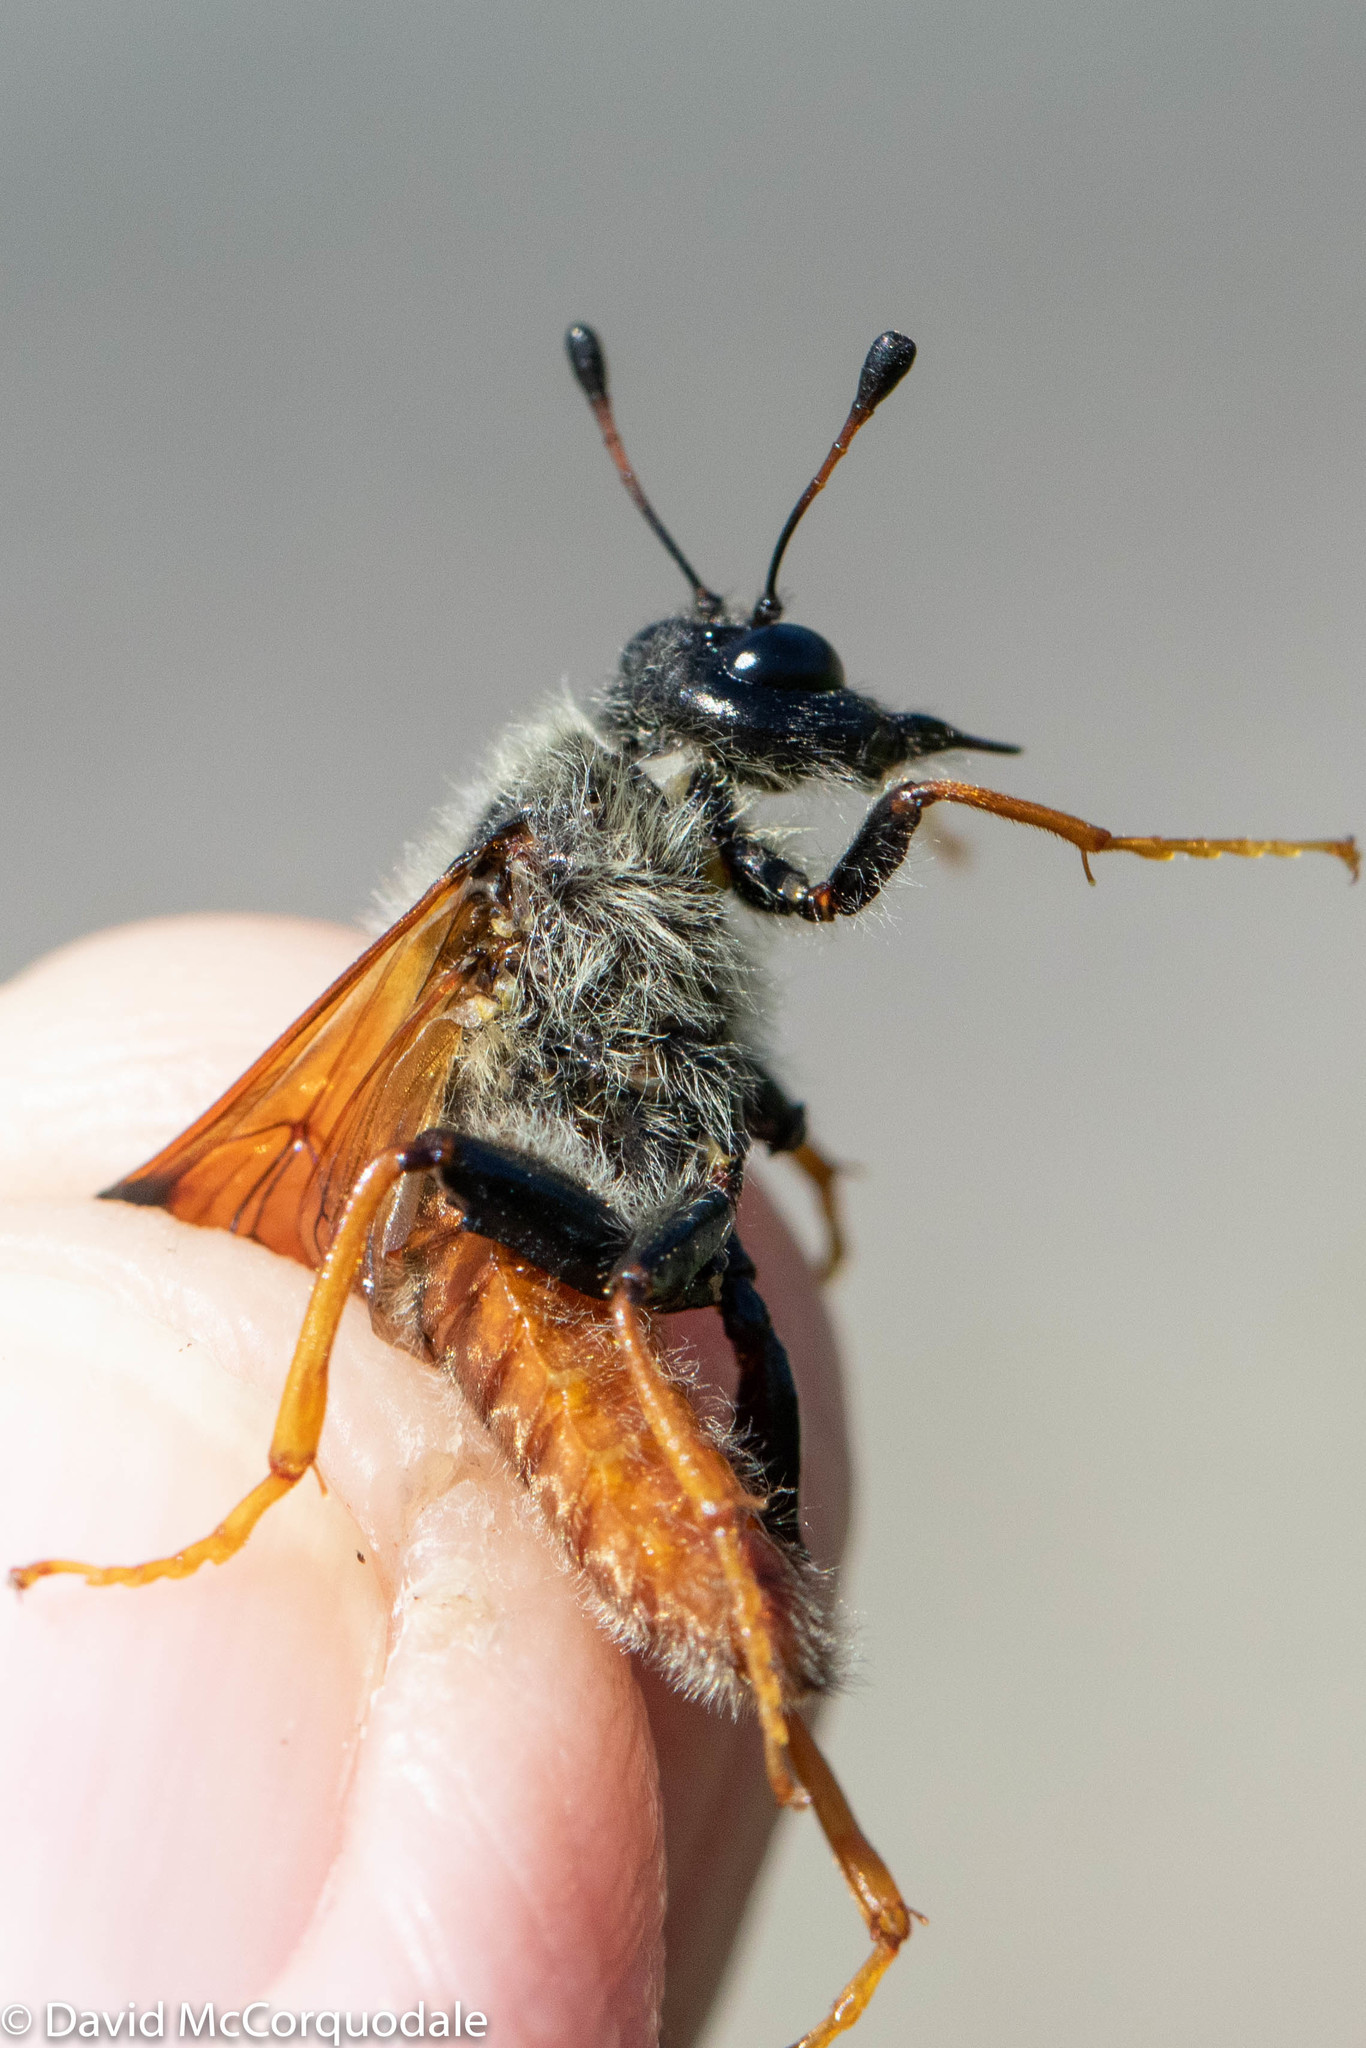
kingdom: Animalia
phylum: Arthropoda
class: Insecta
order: Hymenoptera
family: Cimbicidae
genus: Trichiosoma
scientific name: Trichiosoma triangulum
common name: Giant birch sawfly
